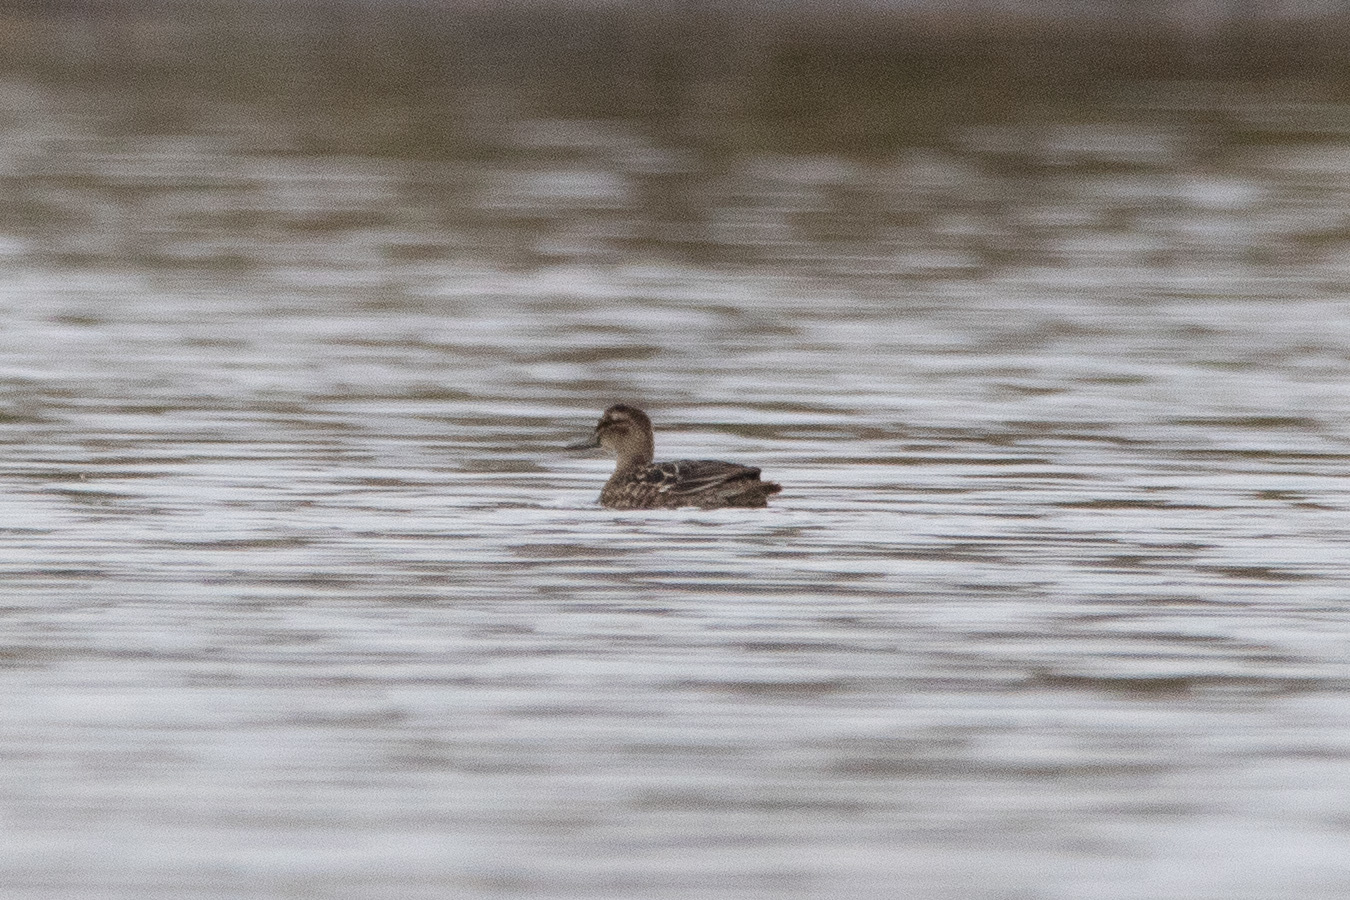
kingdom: Animalia
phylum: Chordata
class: Aves
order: Anseriformes
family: Anatidae
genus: Spatula
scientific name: Spatula querquedula
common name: Garganey
